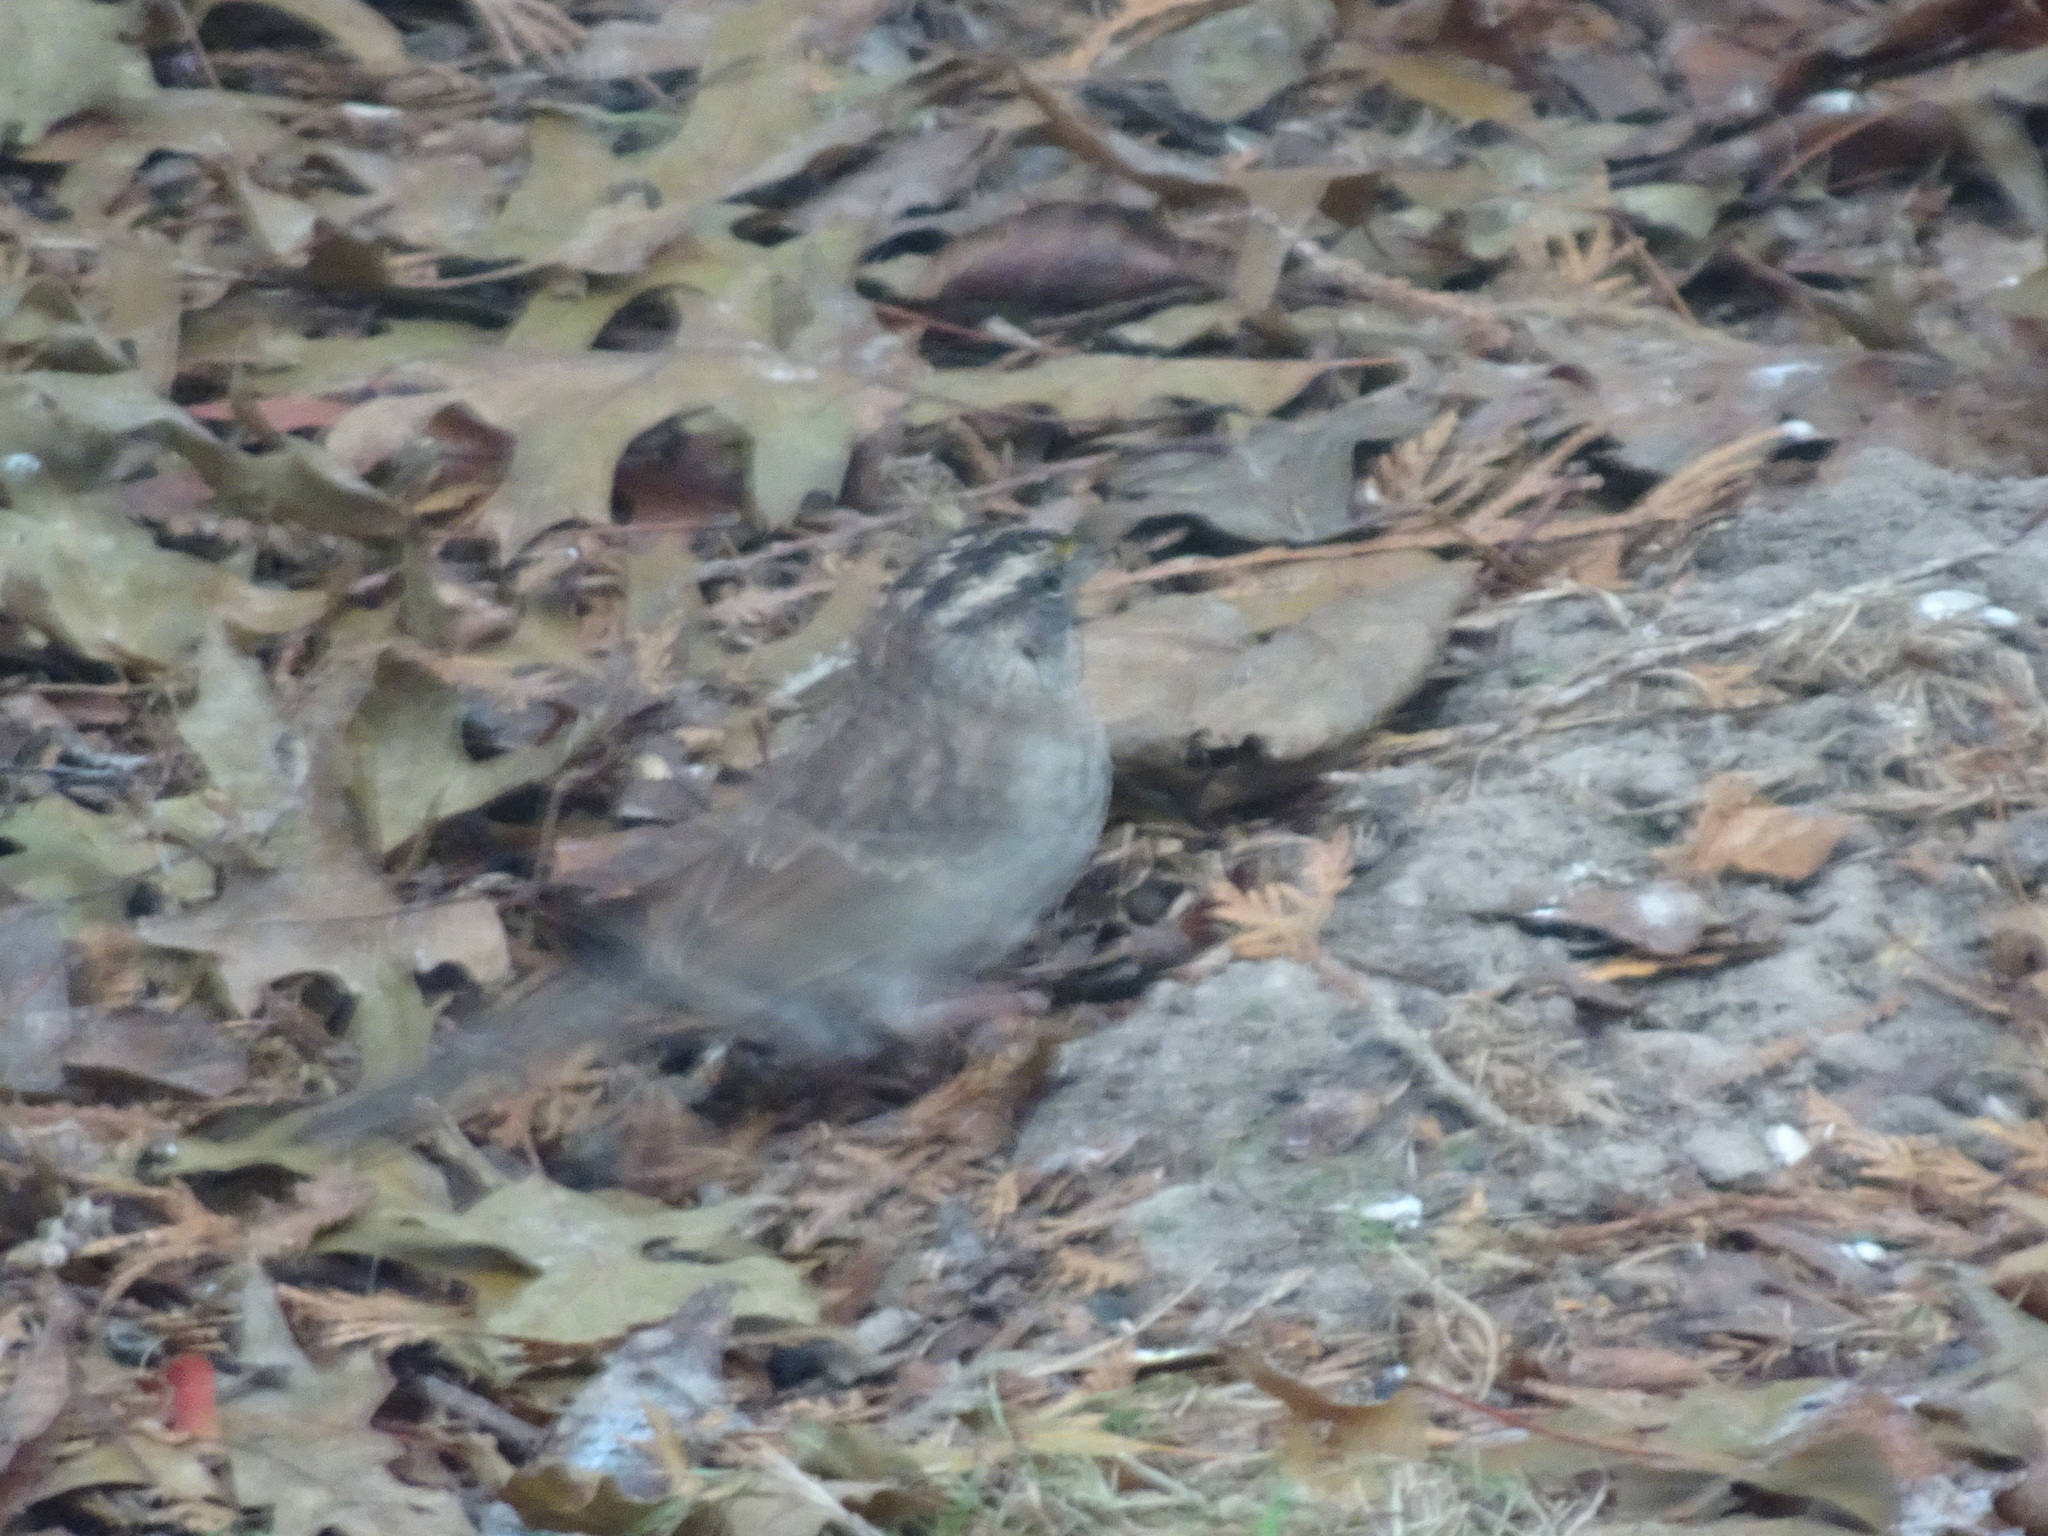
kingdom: Animalia
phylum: Chordata
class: Aves
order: Passeriformes
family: Passerellidae
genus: Zonotrichia
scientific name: Zonotrichia albicollis
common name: White-throated sparrow
